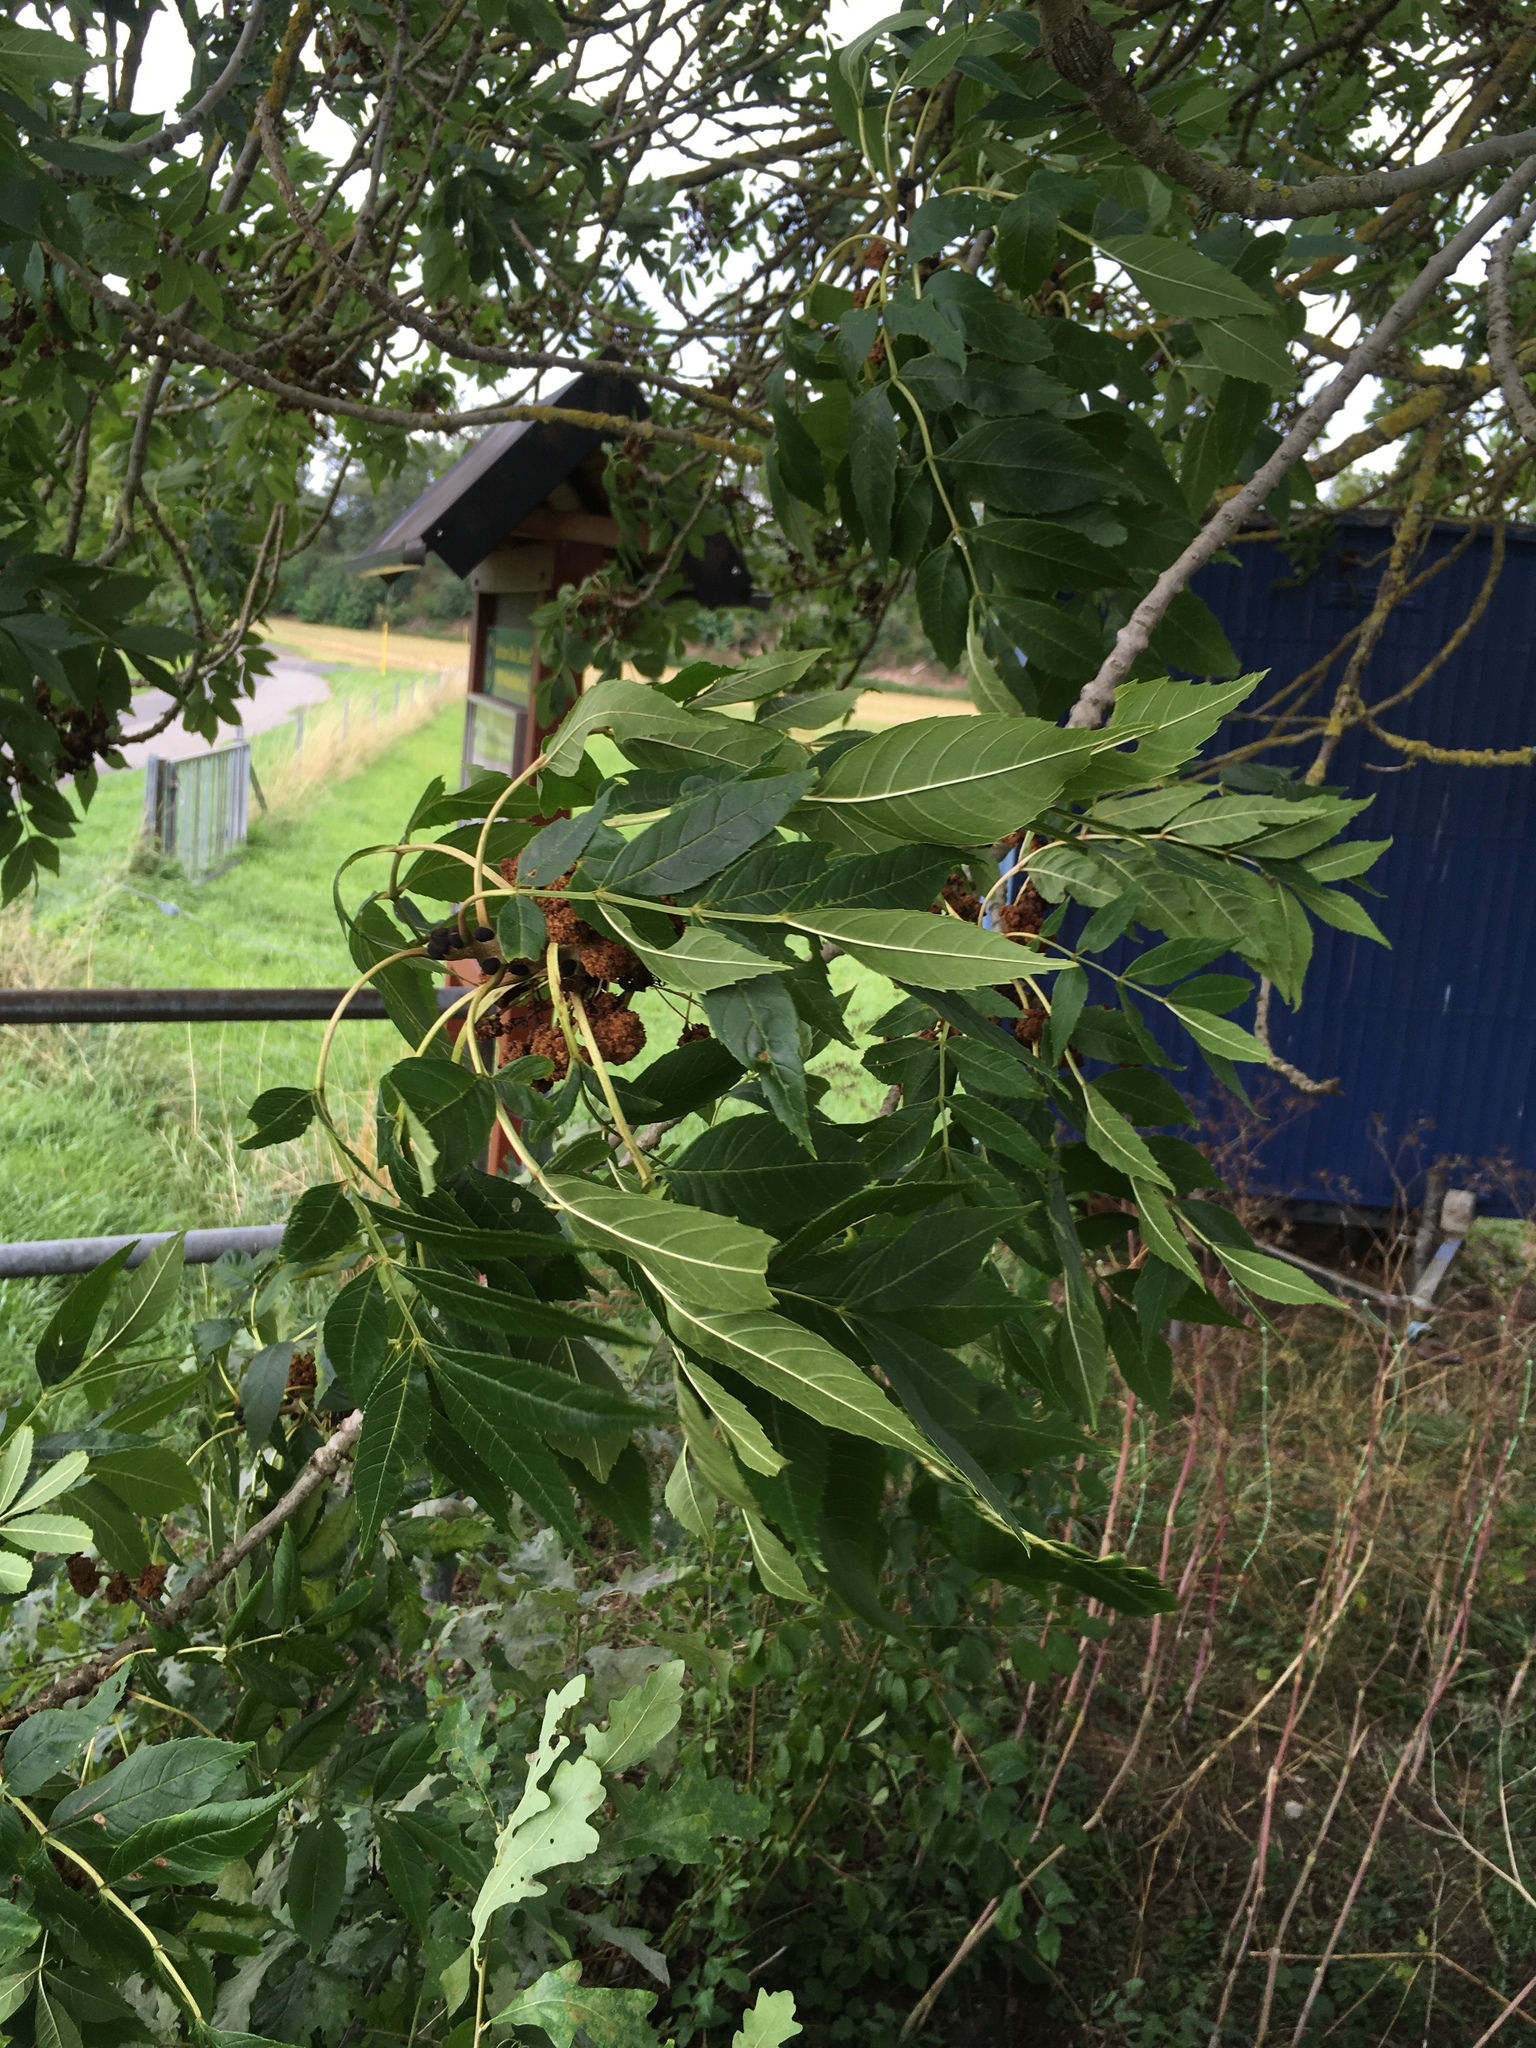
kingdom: Plantae
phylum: Tracheophyta
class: Magnoliopsida
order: Lamiales
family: Oleaceae
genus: Fraxinus
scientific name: Fraxinus excelsior
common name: European ash
